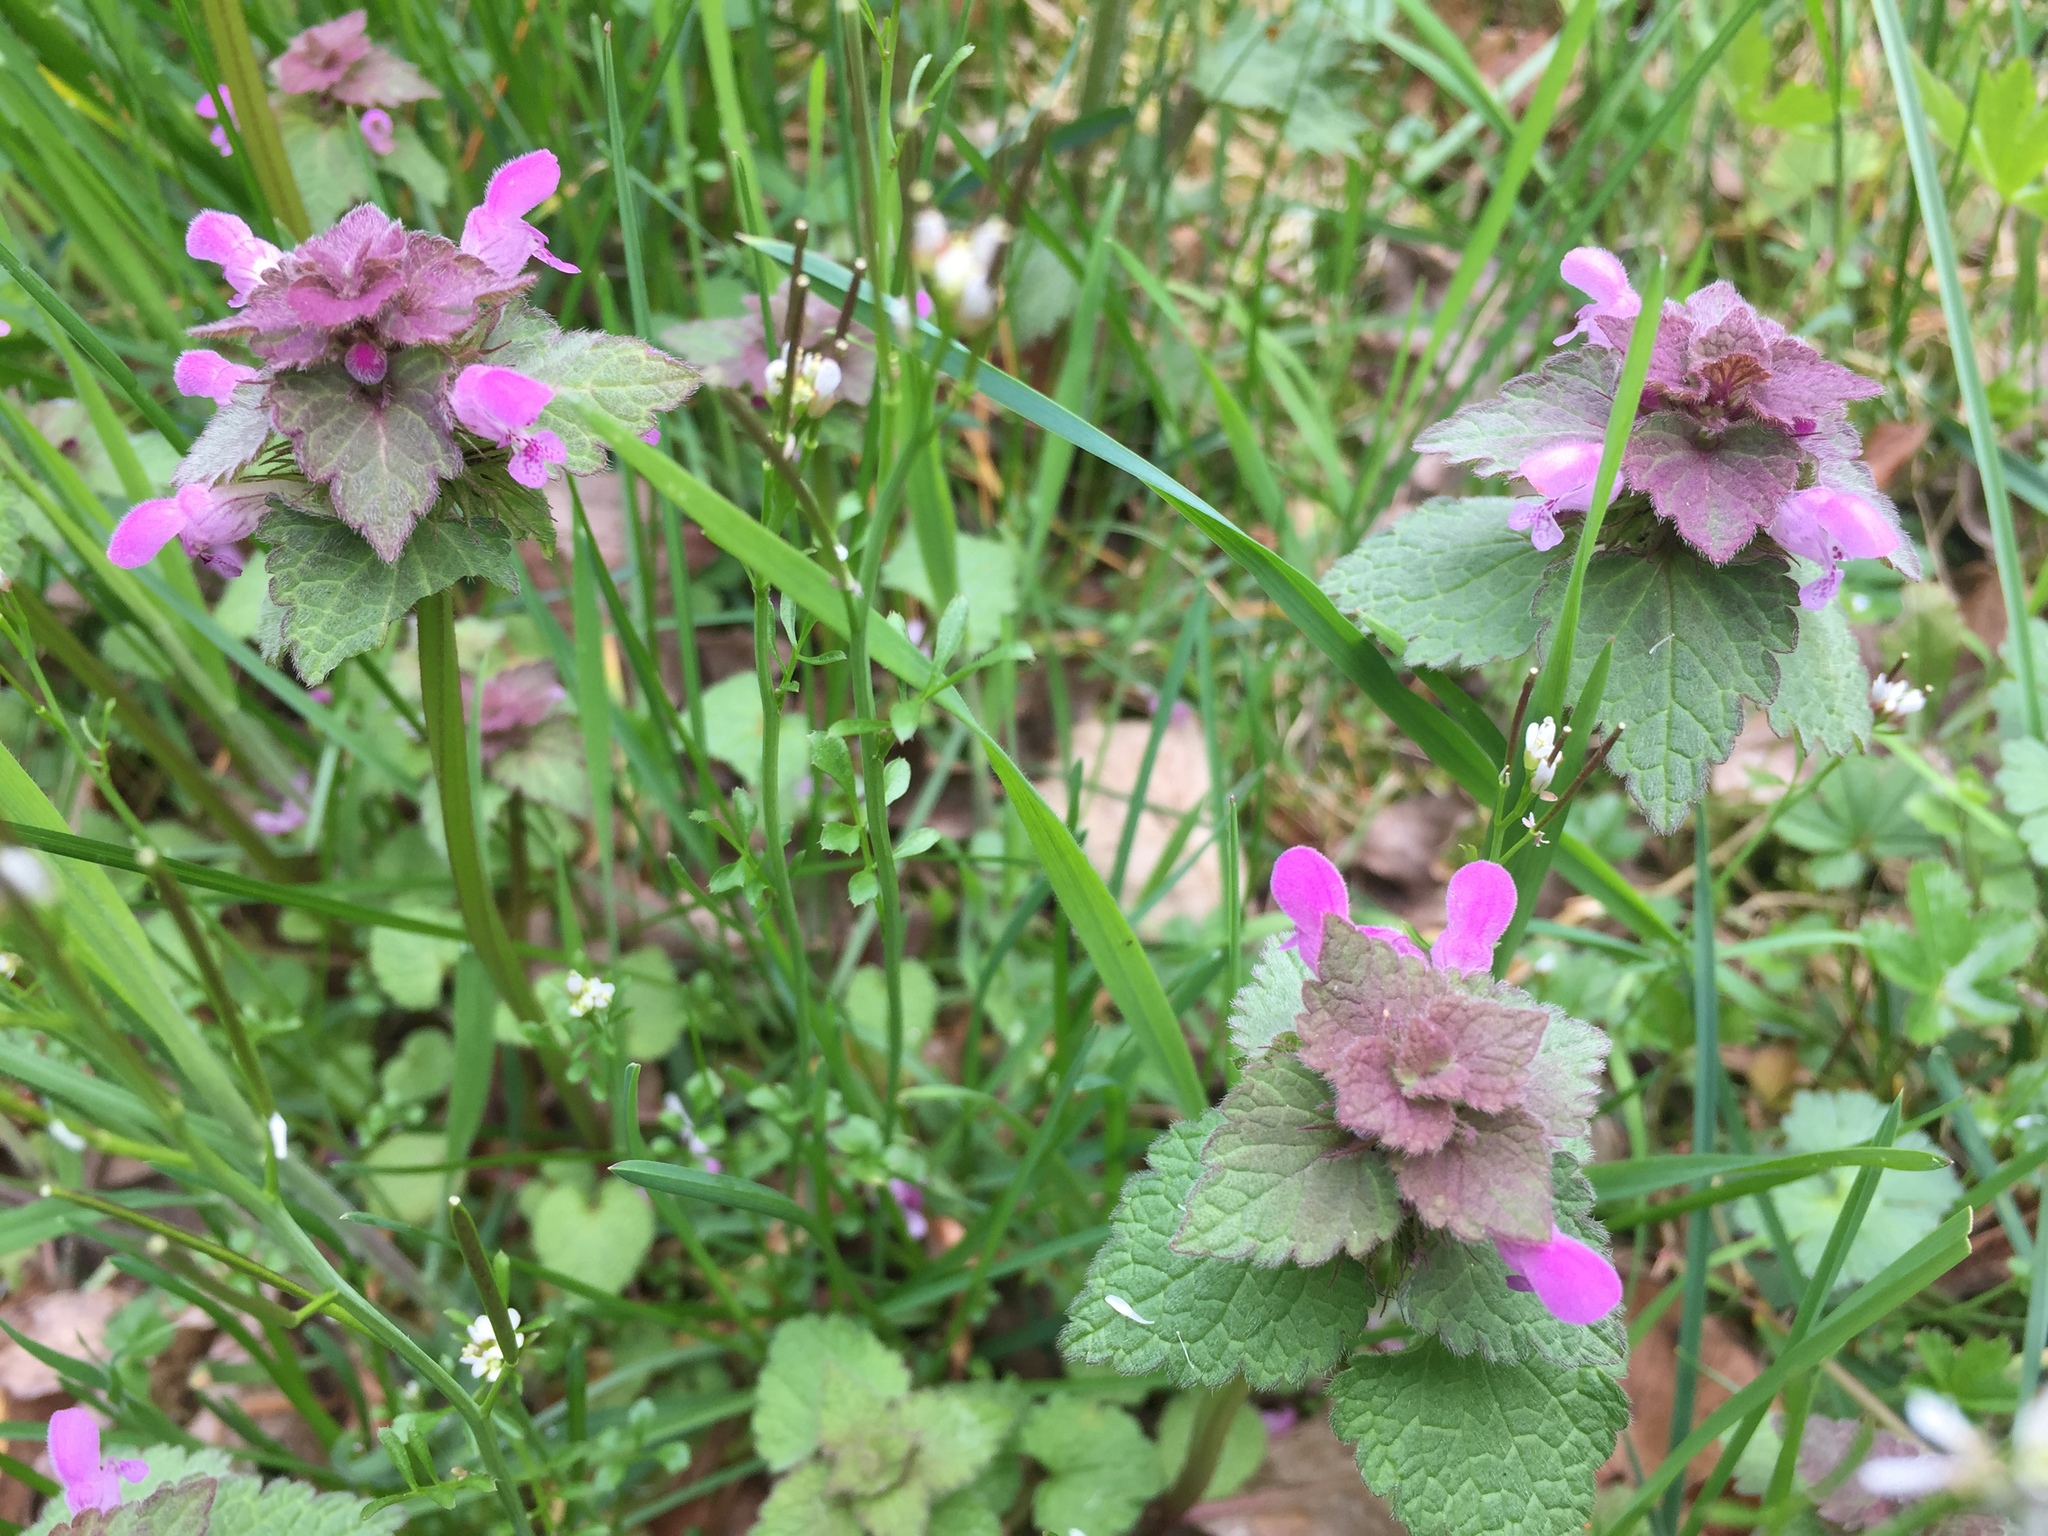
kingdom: Plantae
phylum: Tracheophyta
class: Magnoliopsida
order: Lamiales
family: Lamiaceae
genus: Lamium
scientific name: Lamium purpureum
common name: Red dead-nettle
